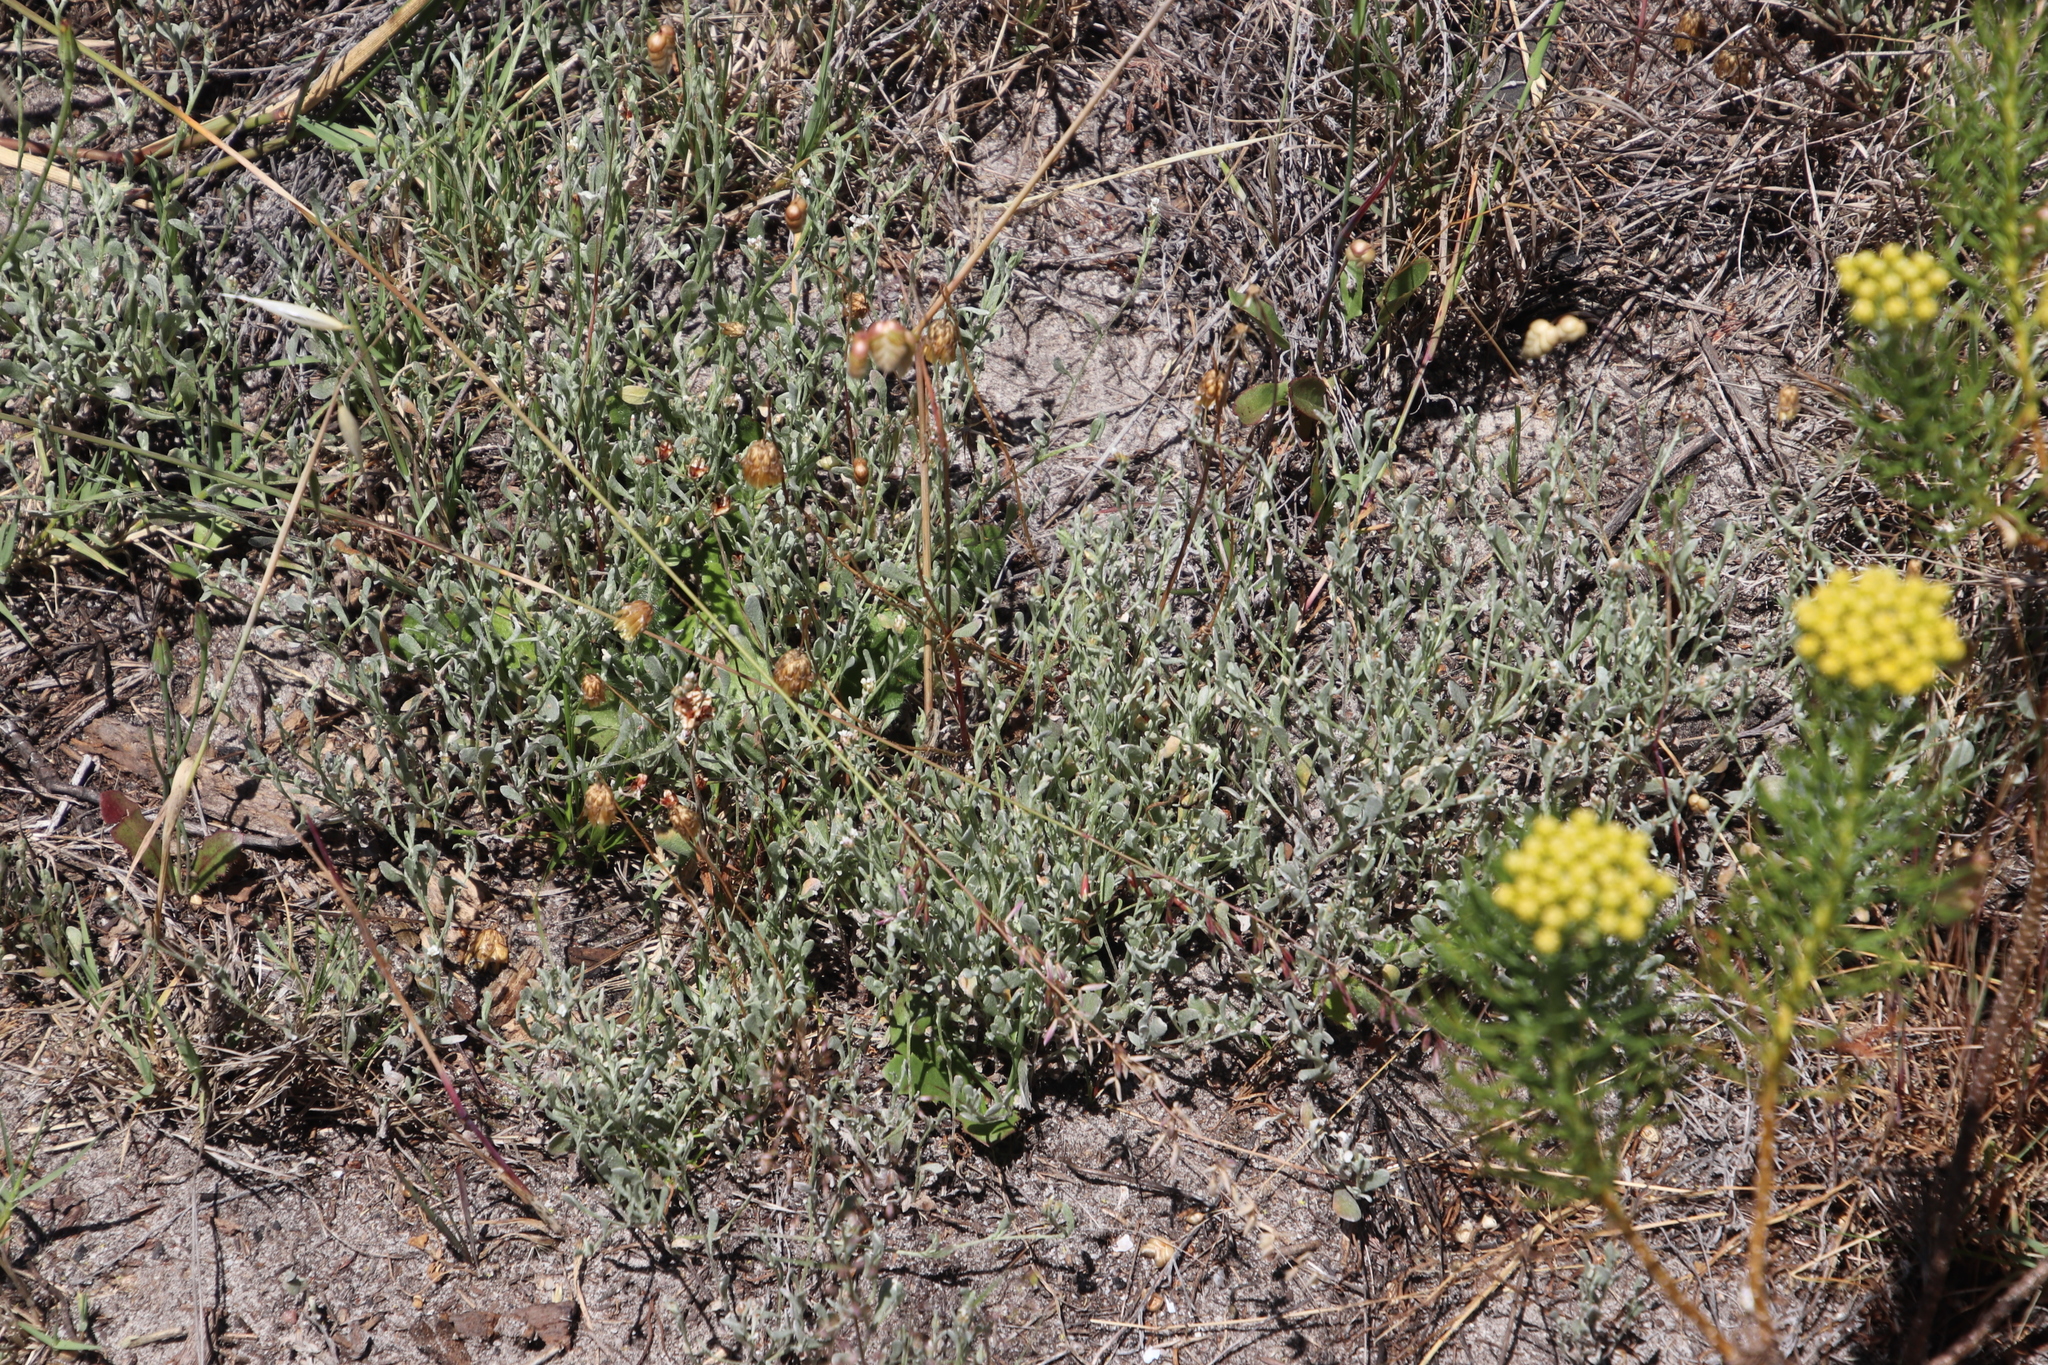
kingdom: Plantae
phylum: Tracheophyta
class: Magnoliopsida
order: Asterales
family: Asteraceae
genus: Helichrysum
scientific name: Helichrysum indicum
